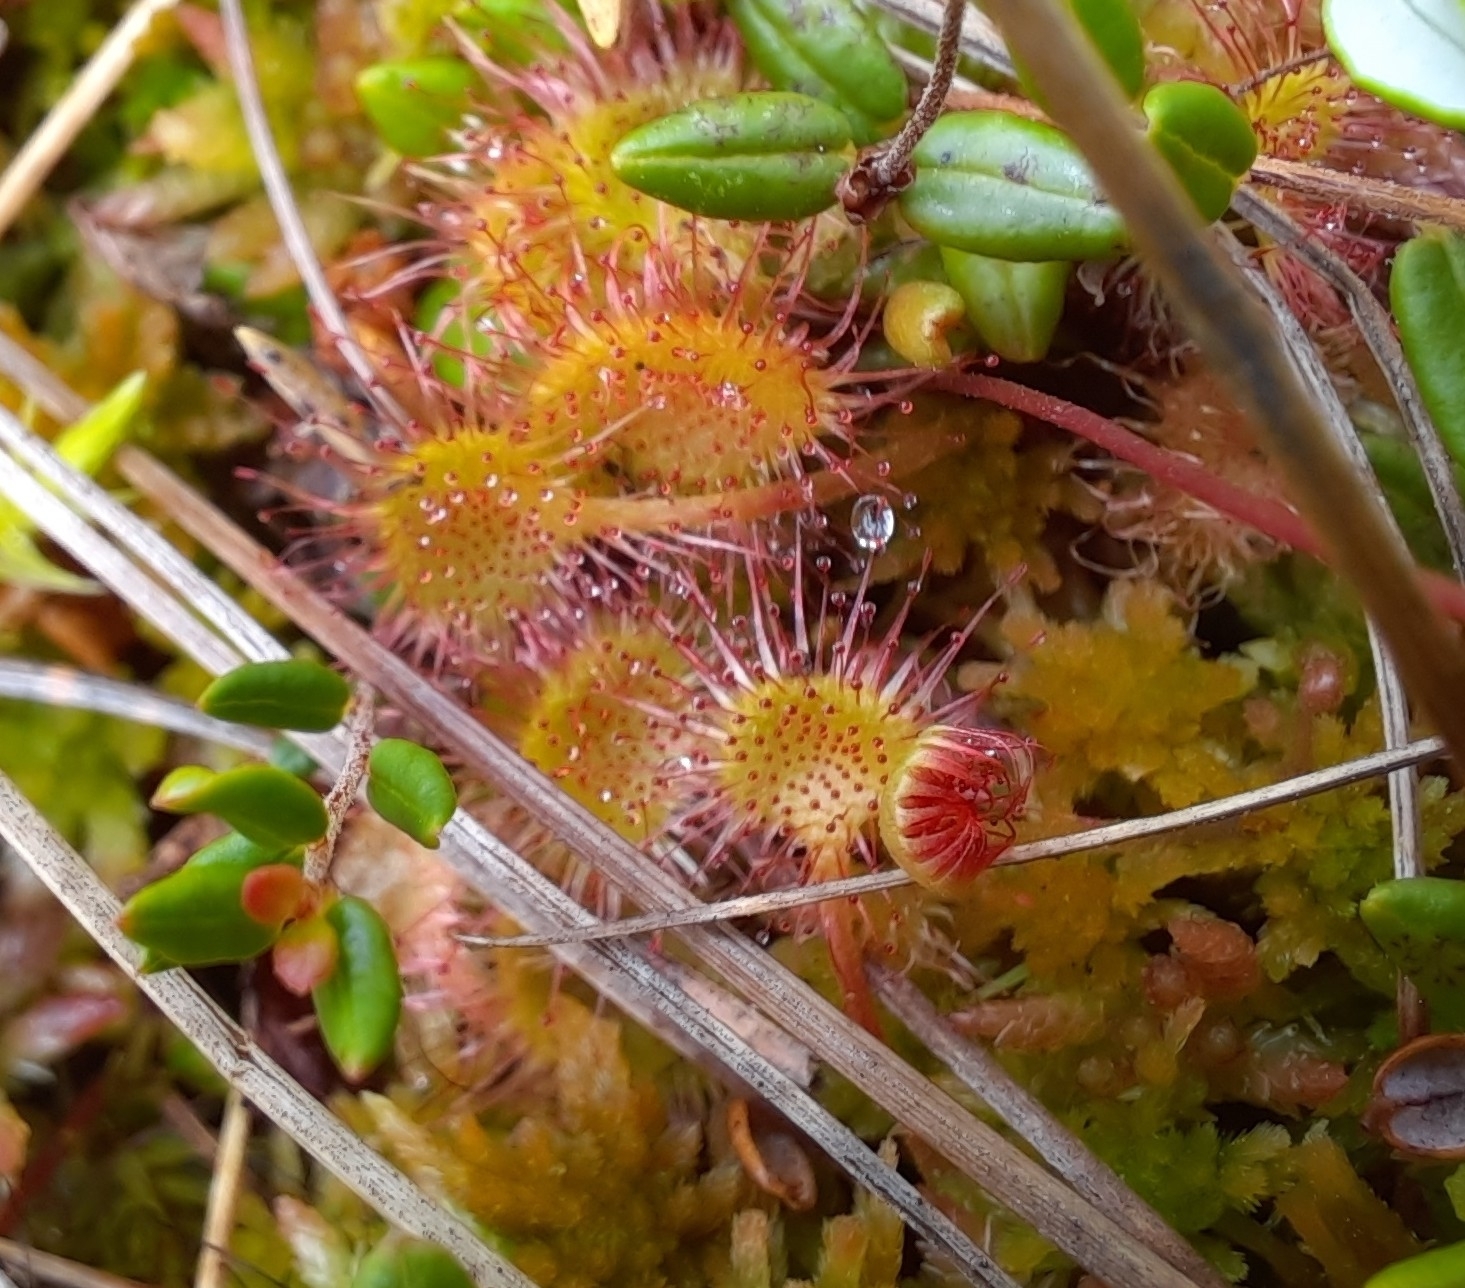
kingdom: Plantae
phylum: Tracheophyta
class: Magnoliopsida
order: Caryophyllales
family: Droseraceae
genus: Drosera
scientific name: Drosera rotundifolia
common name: Round-leaved sundew
